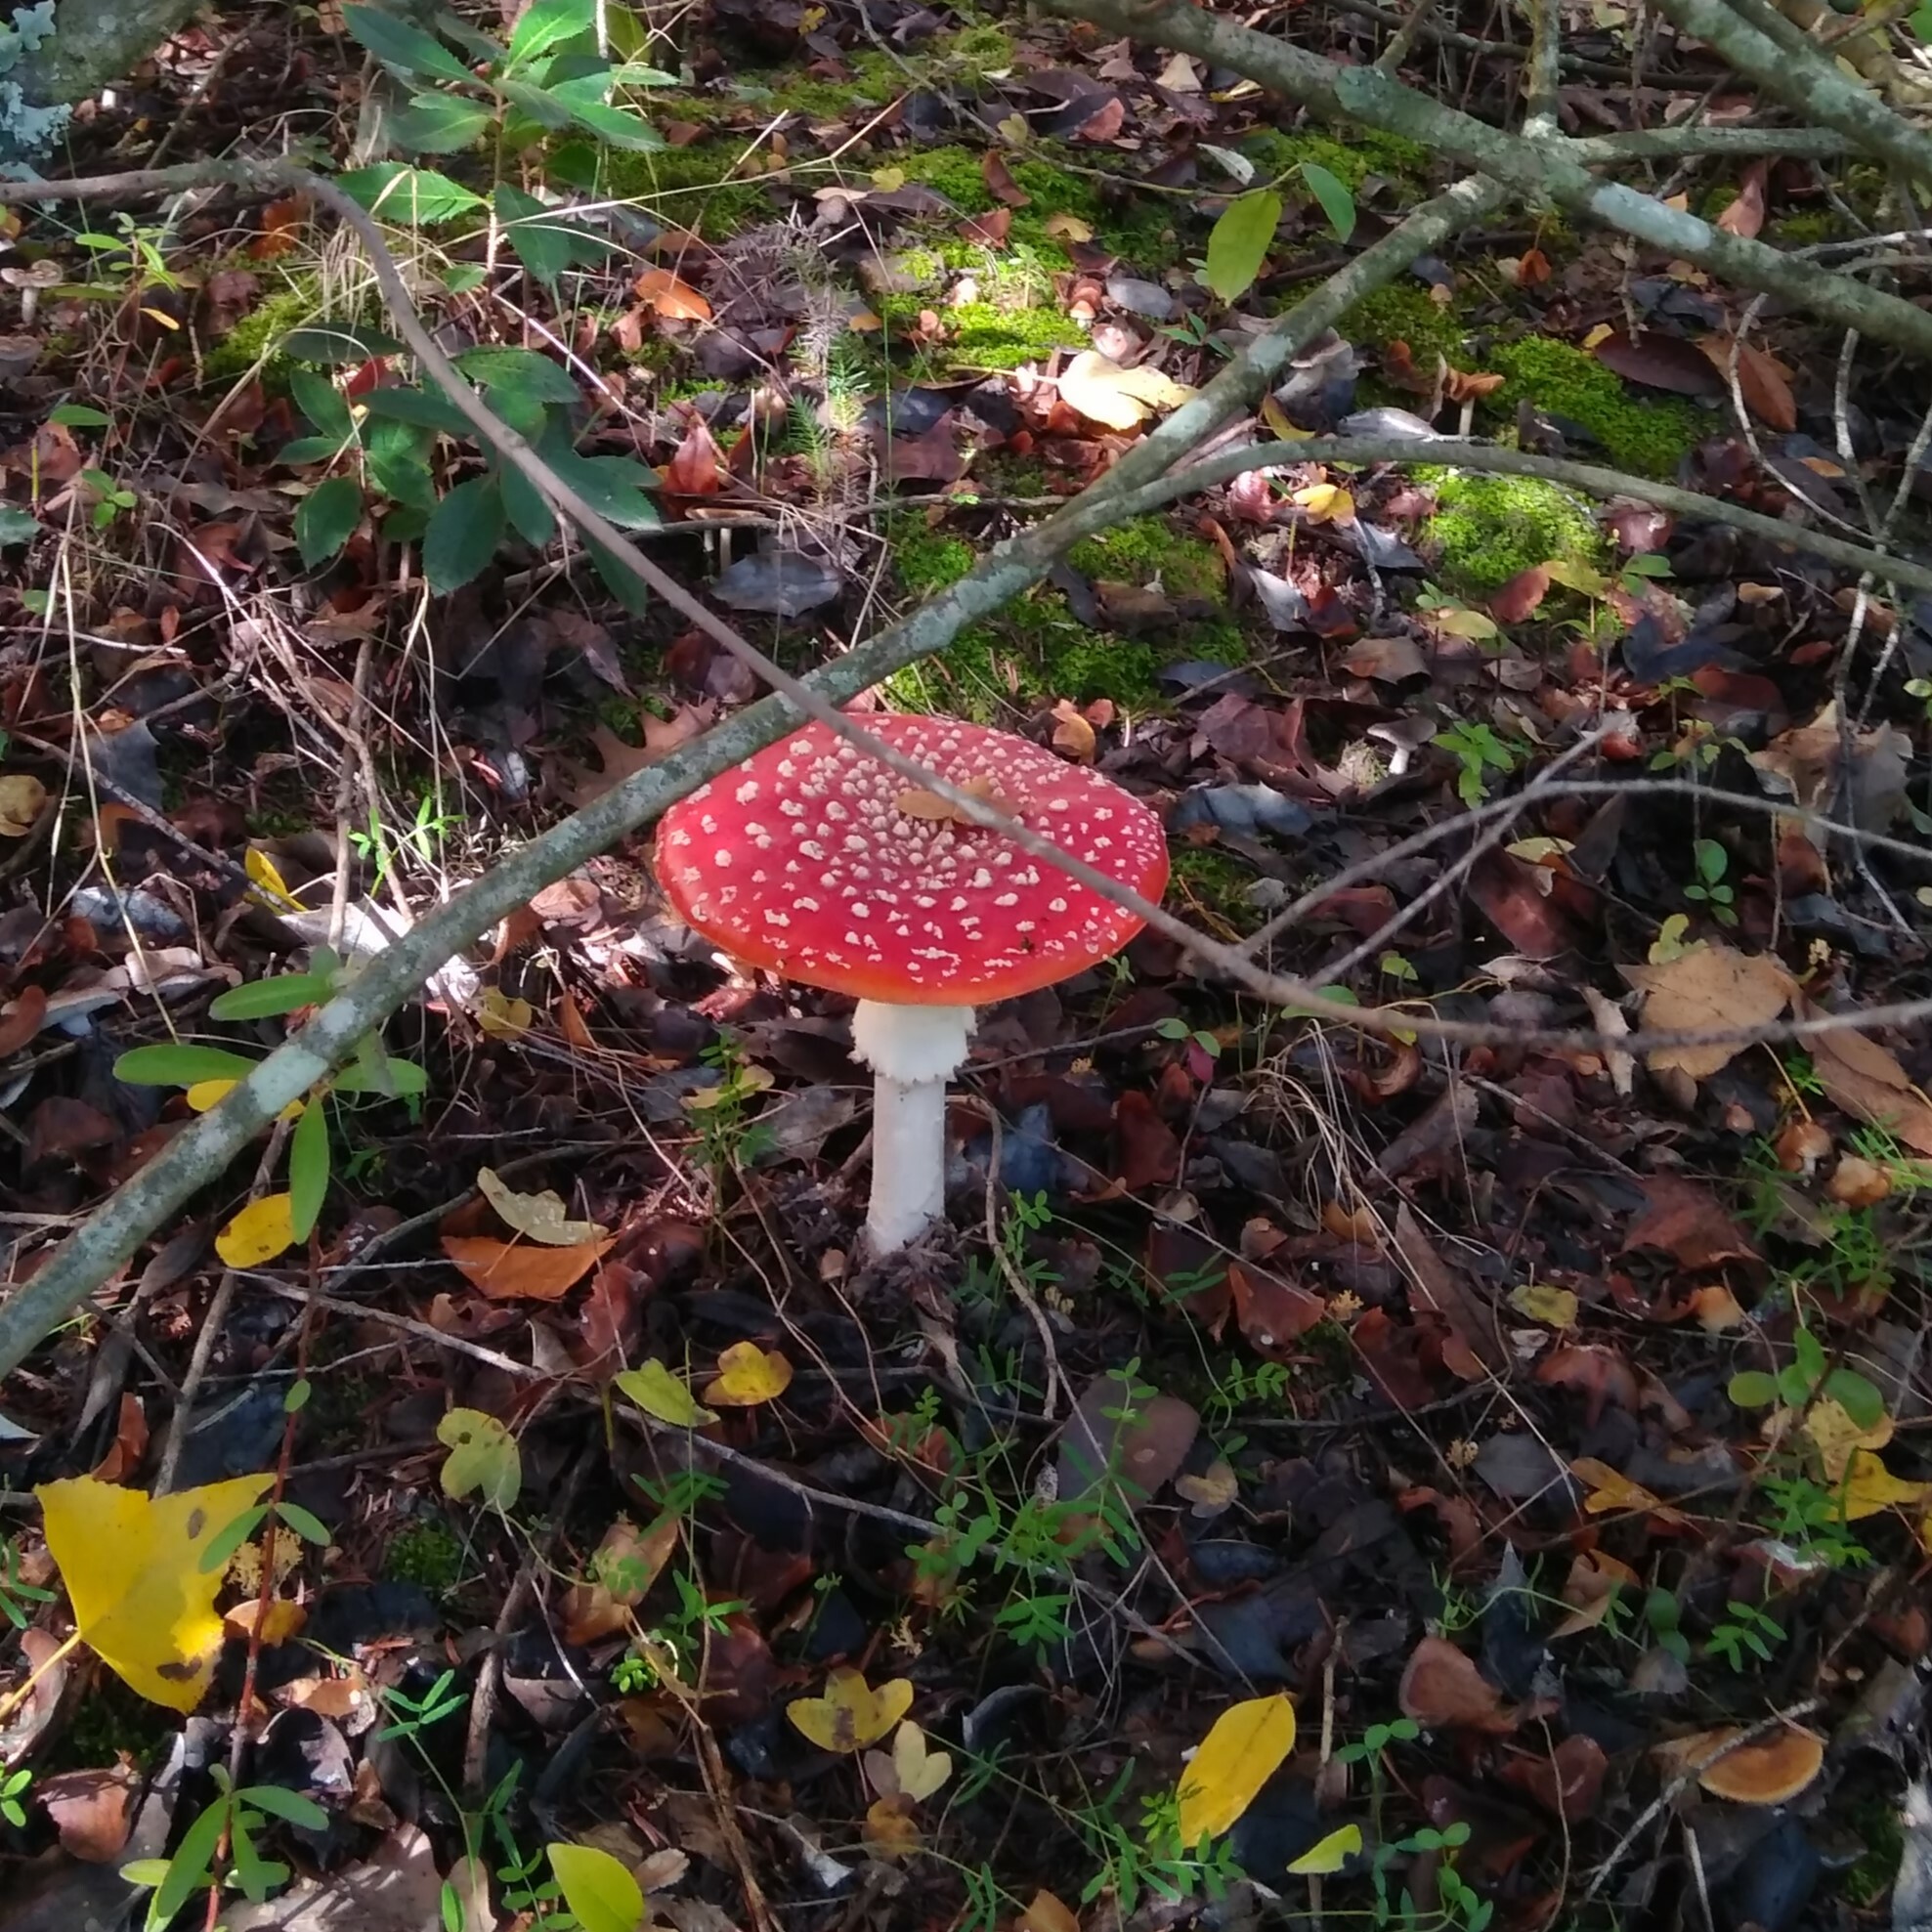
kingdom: Fungi
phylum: Basidiomycota
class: Agaricomycetes
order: Agaricales
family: Amanitaceae
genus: Amanita
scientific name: Amanita muscaria
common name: Fly agaric
